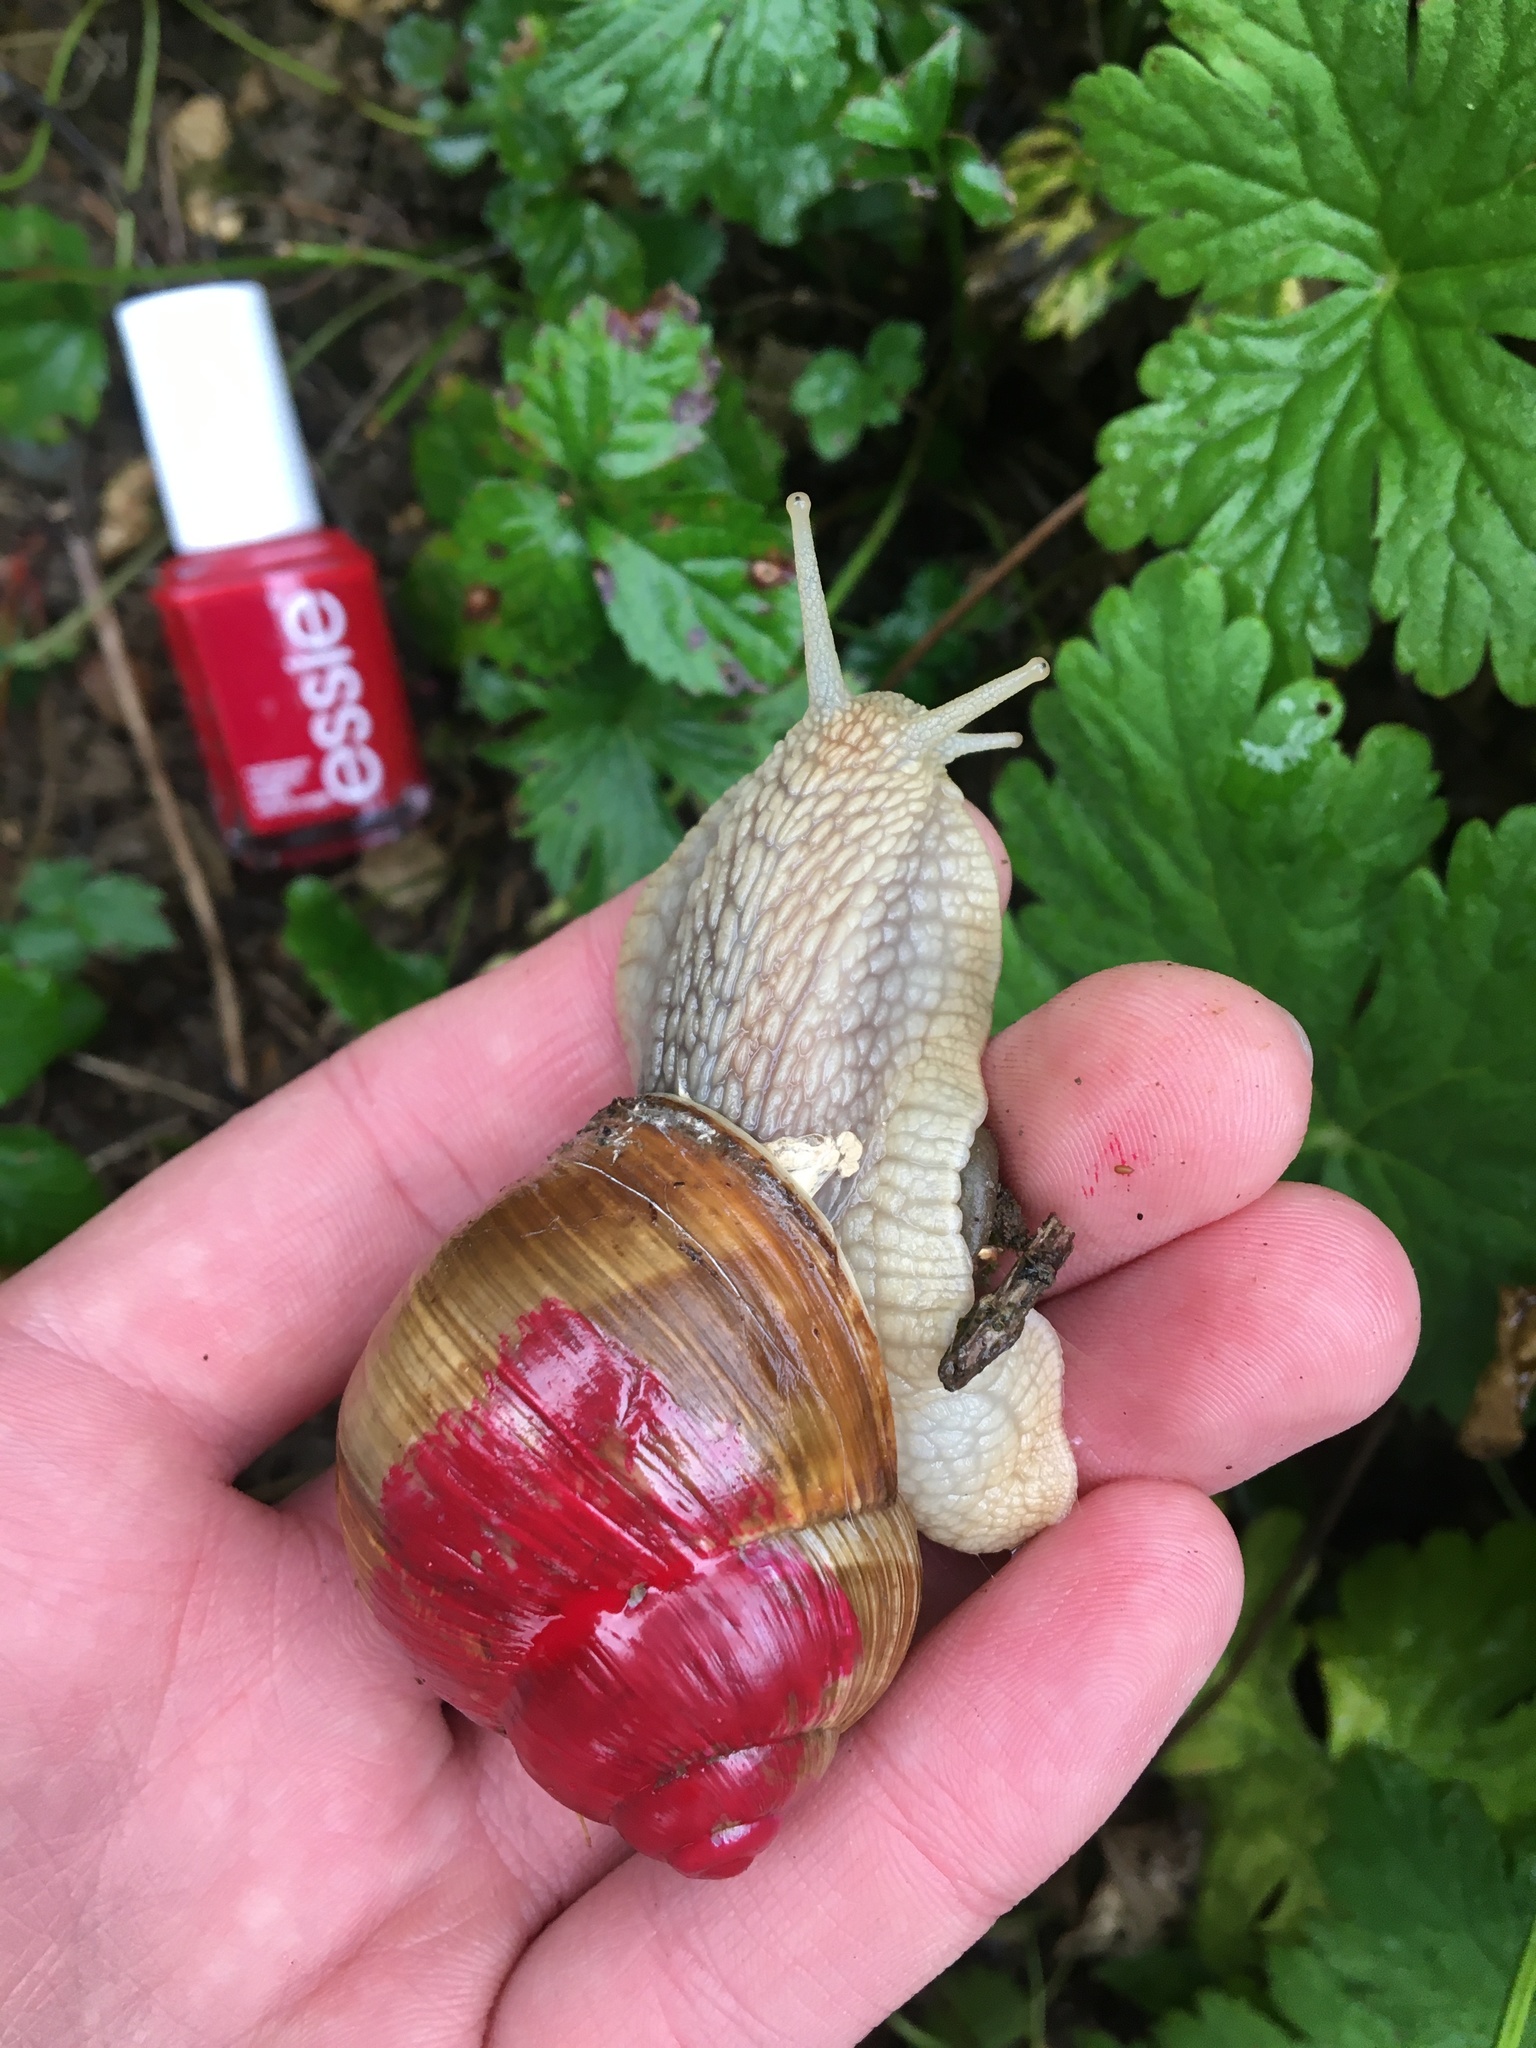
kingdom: Animalia
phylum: Mollusca
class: Gastropoda
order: Stylommatophora
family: Helicidae
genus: Helix
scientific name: Helix pomatia
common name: Roman snail
